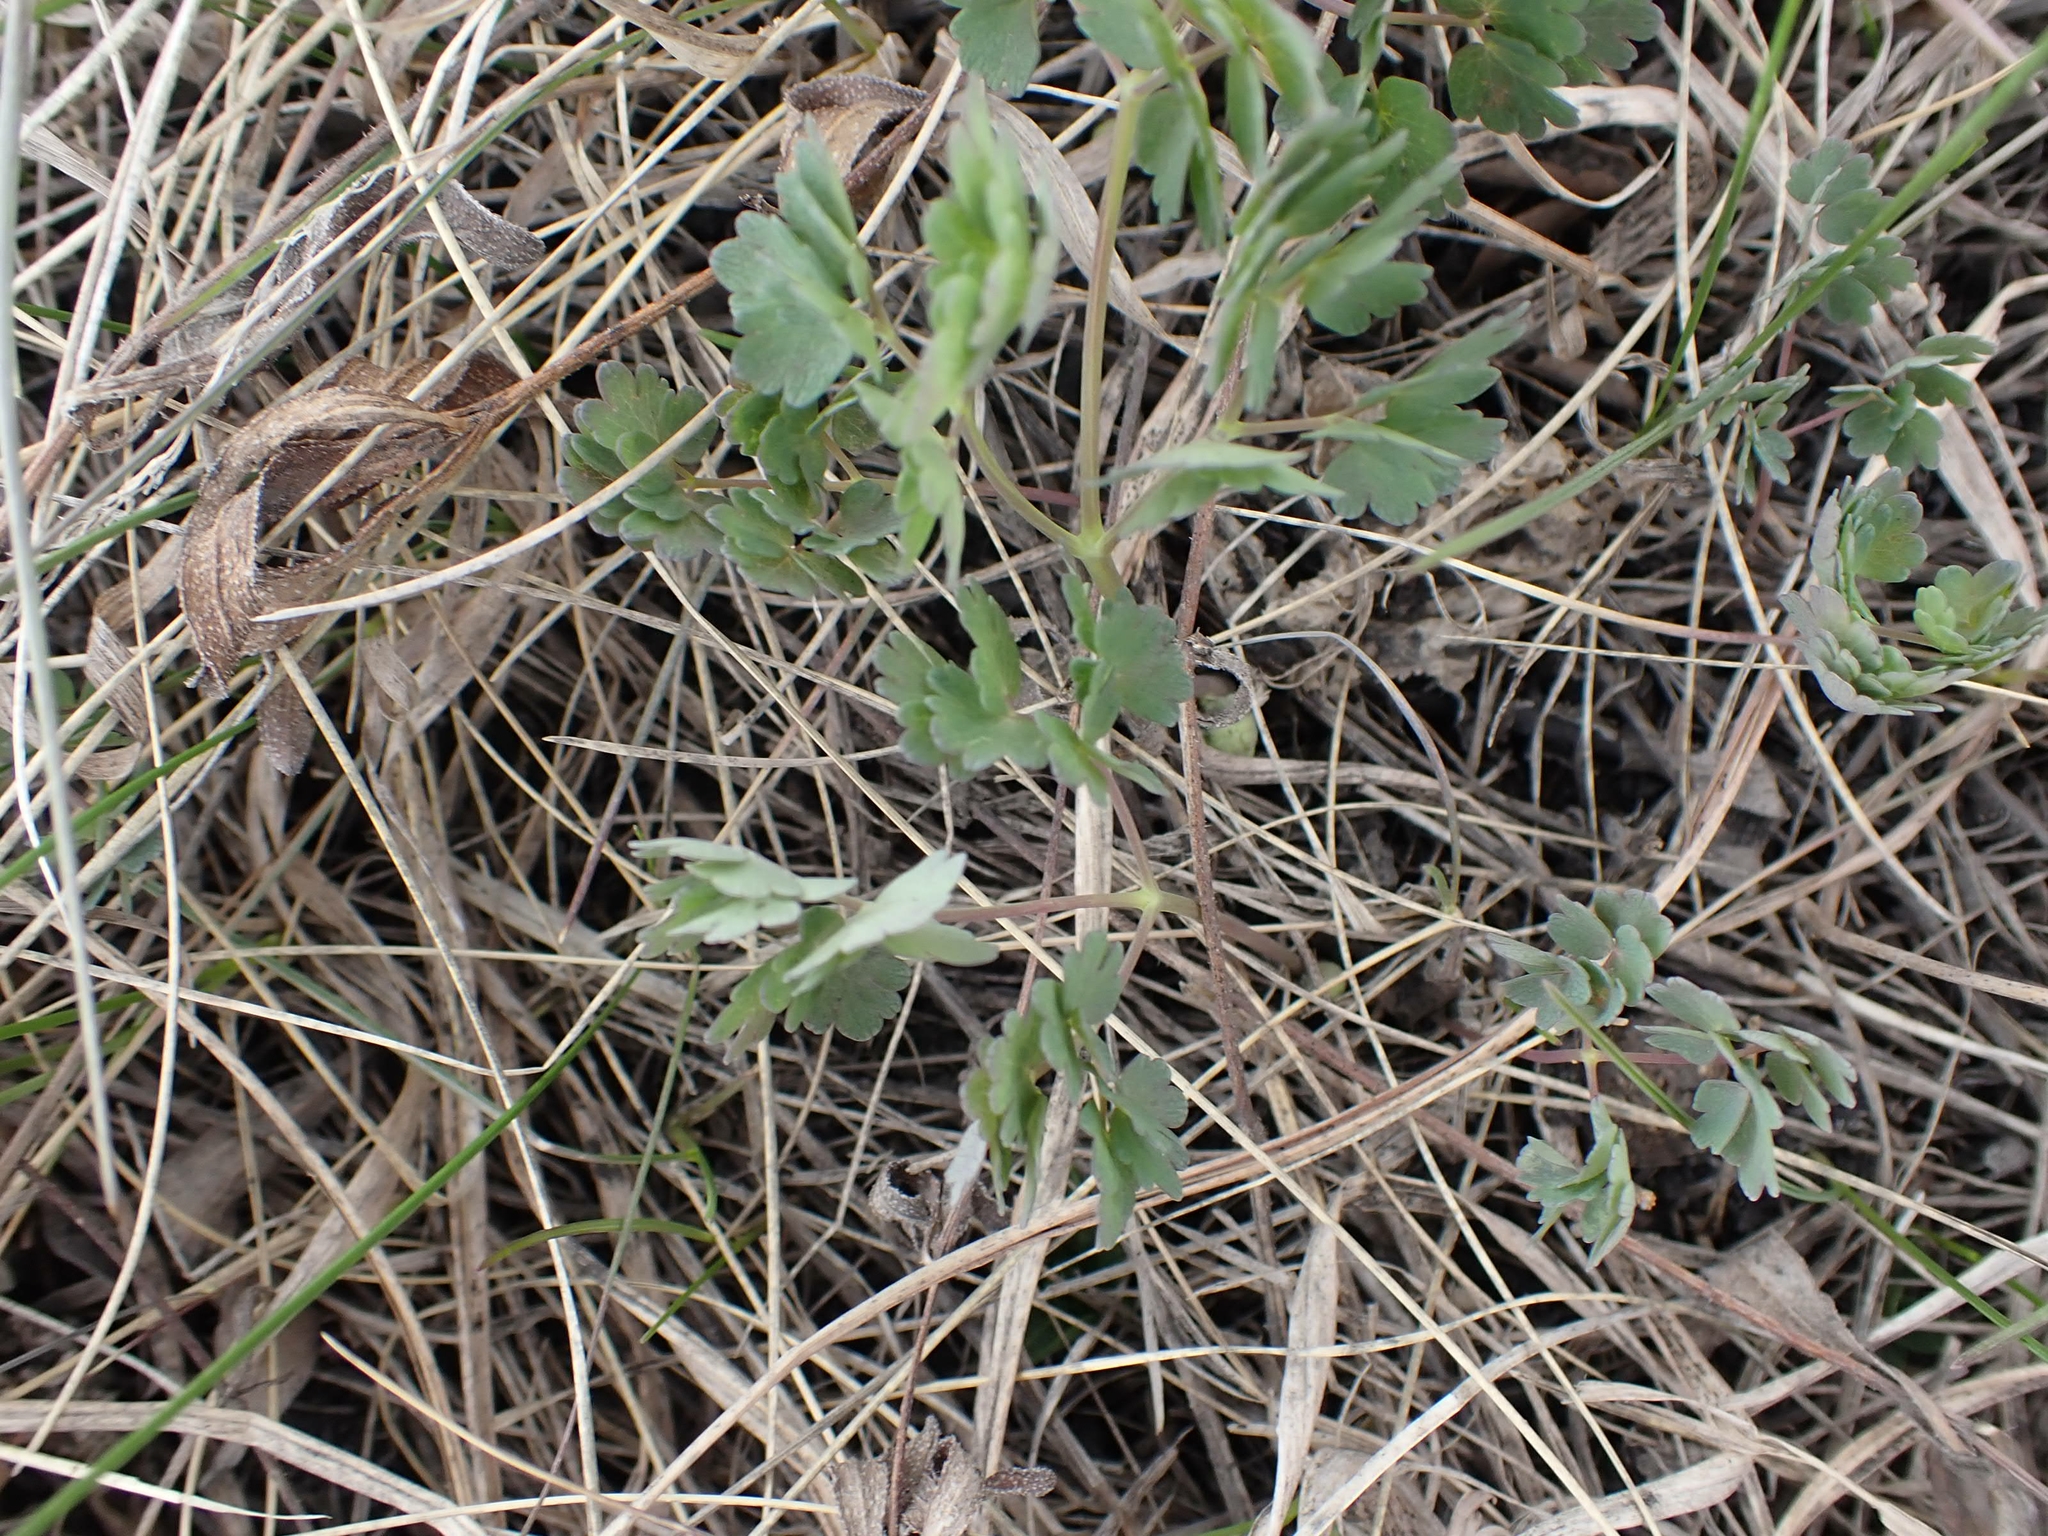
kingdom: Plantae
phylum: Tracheophyta
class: Magnoliopsida
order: Ranunculales
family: Ranunculaceae
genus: Thalictrum
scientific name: Thalictrum venulosum
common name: Early meadow-rue
